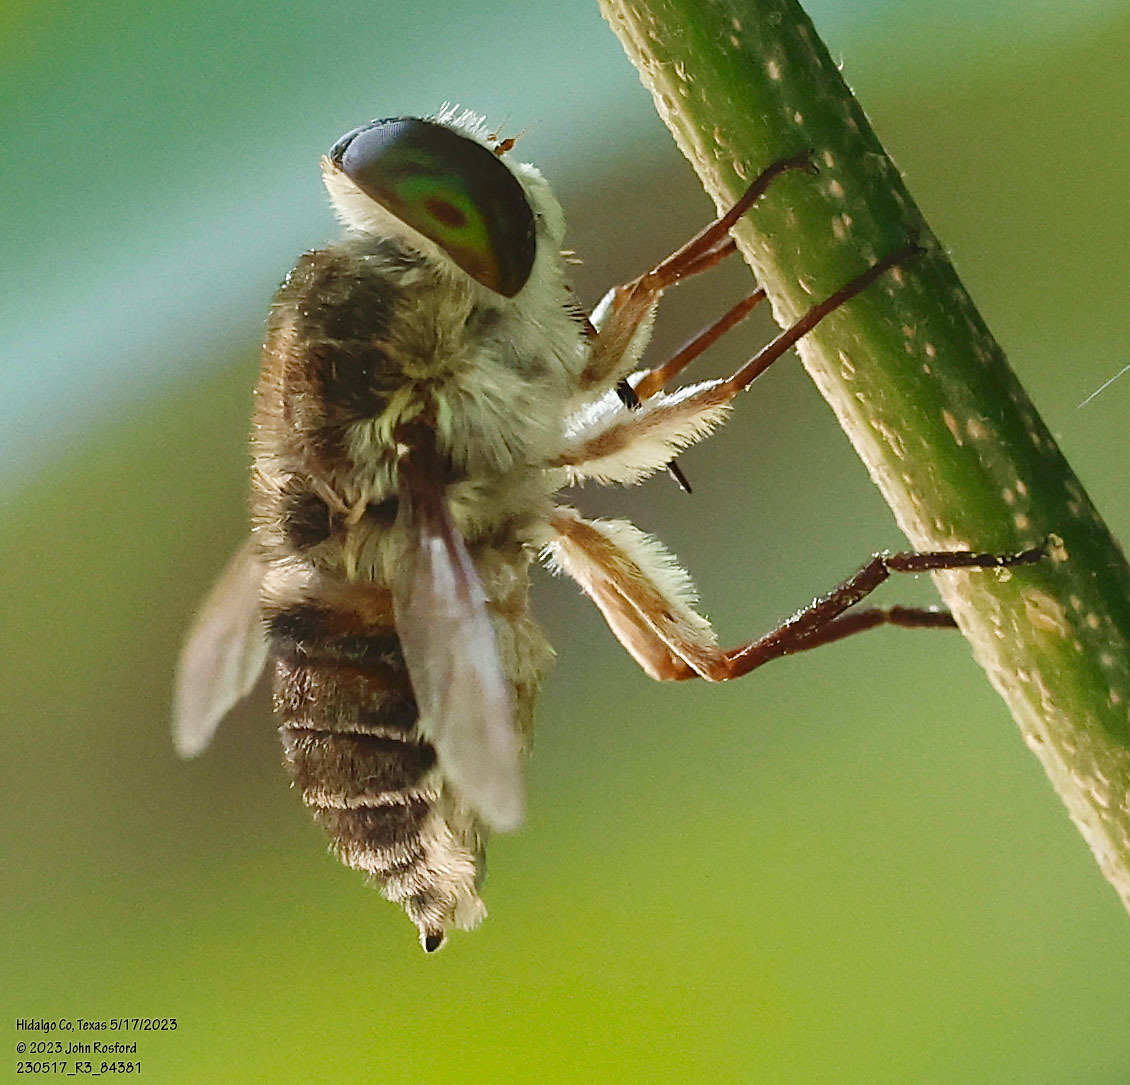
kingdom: Animalia
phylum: Arthropoda
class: Insecta
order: Diptera
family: Nemestrinidae
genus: Neorhynchocephalus
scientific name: Neorhynchocephalus volaticus
